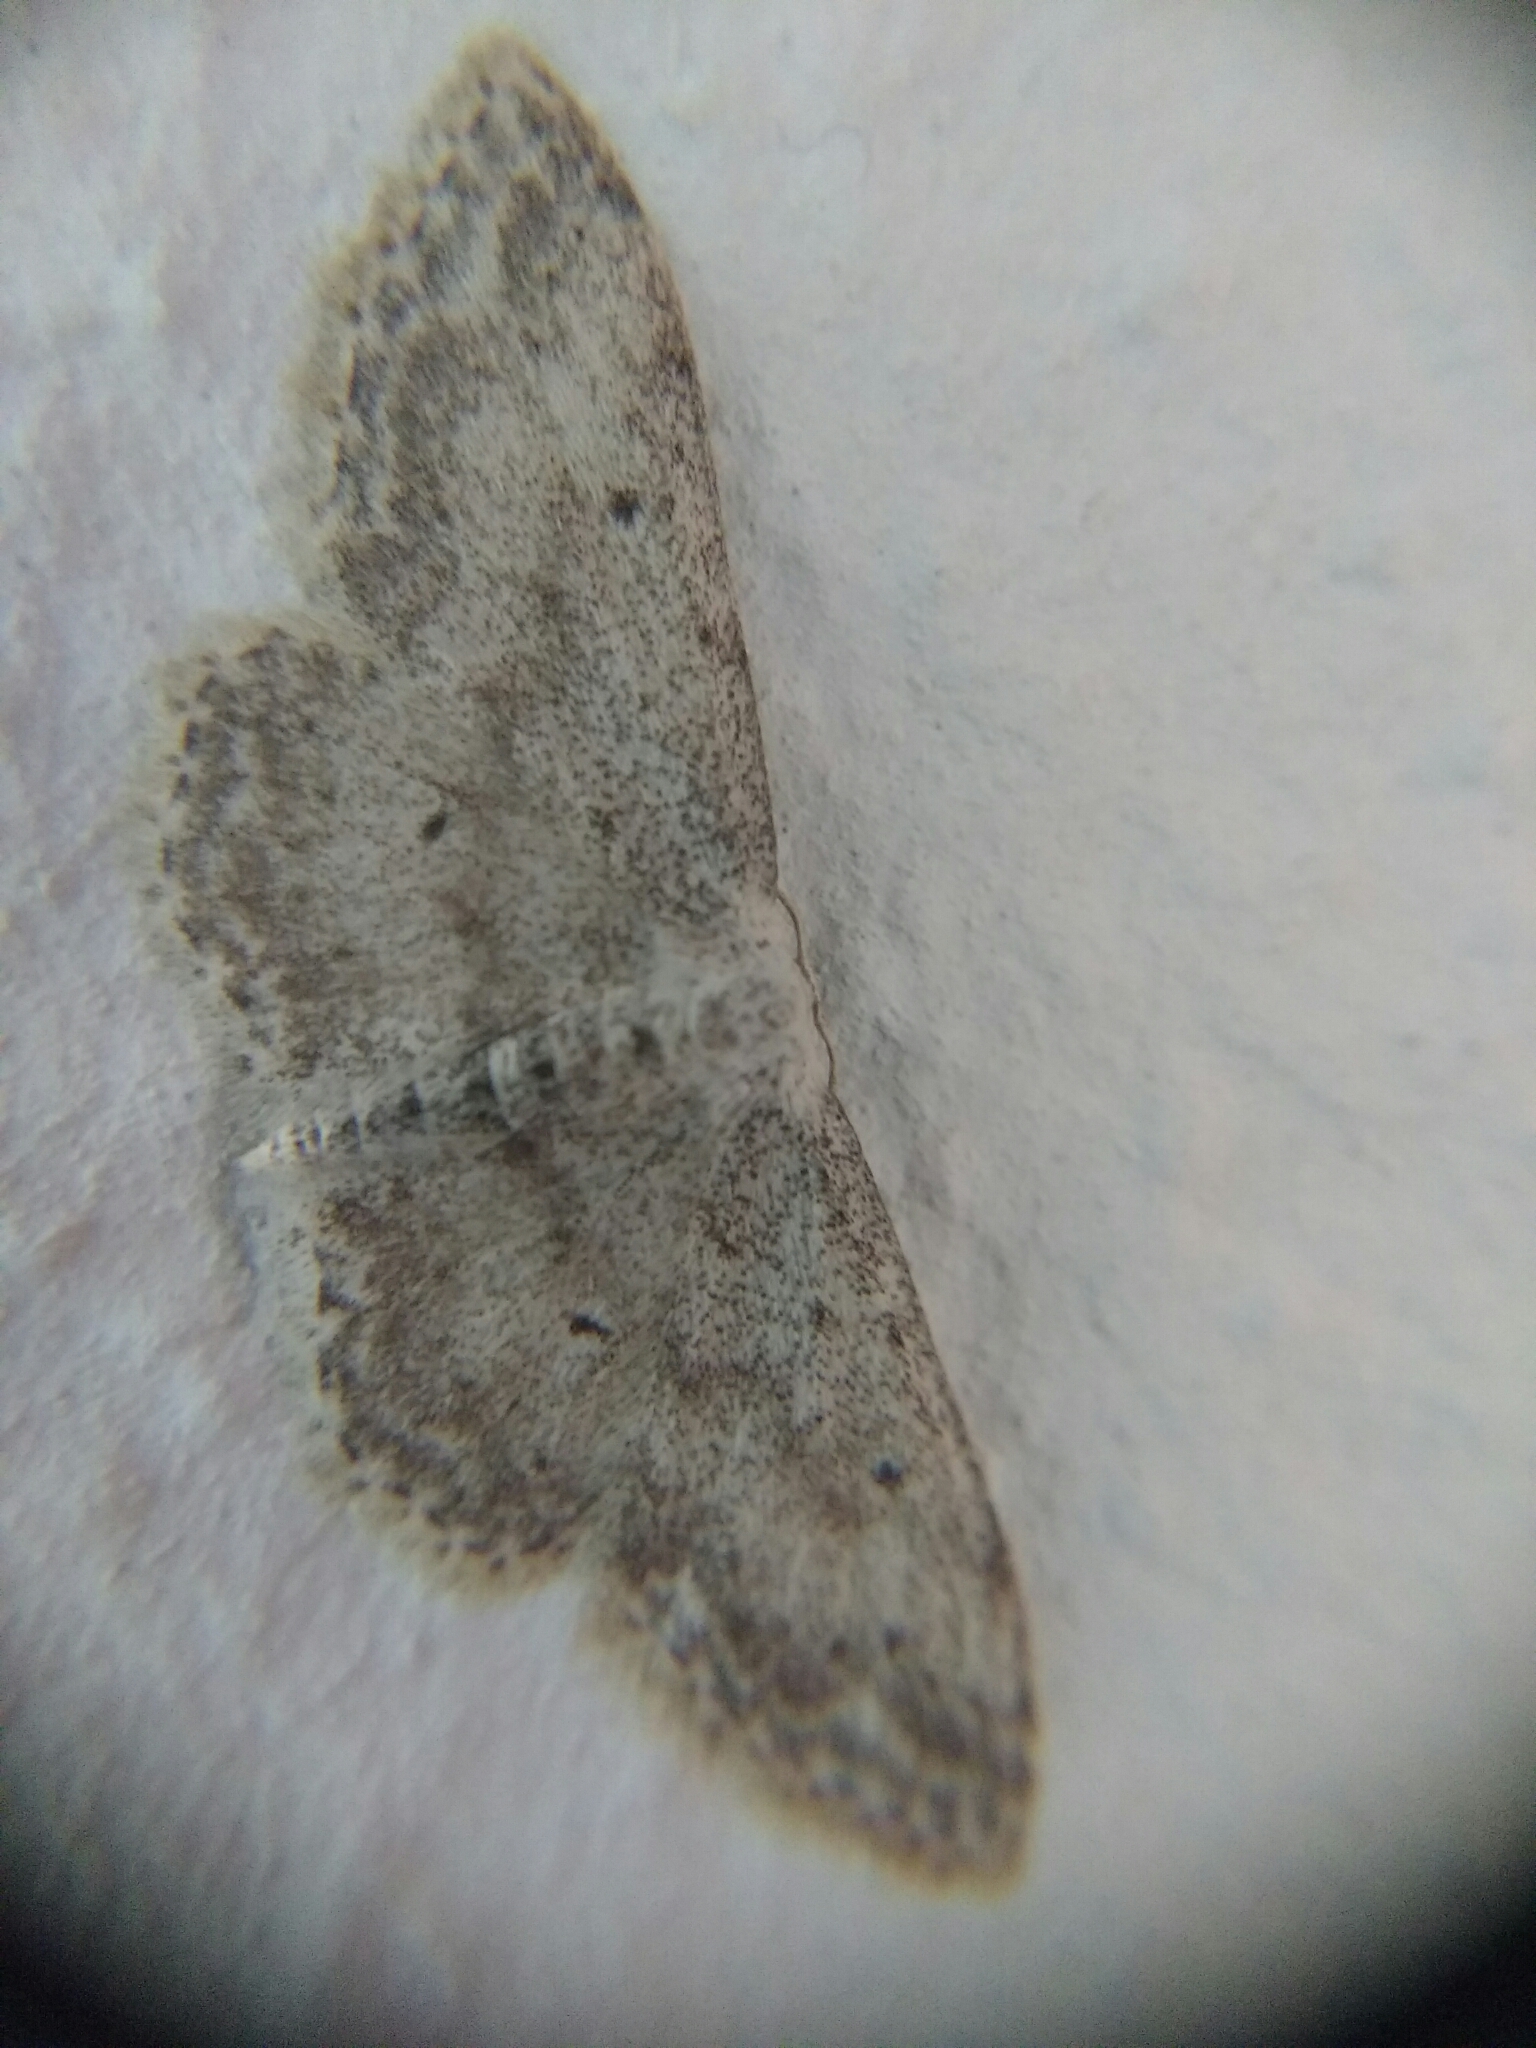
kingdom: Animalia
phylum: Arthropoda
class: Insecta
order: Lepidoptera
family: Geometridae
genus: Idaea
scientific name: Idaea seriata
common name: Small dusty wave
